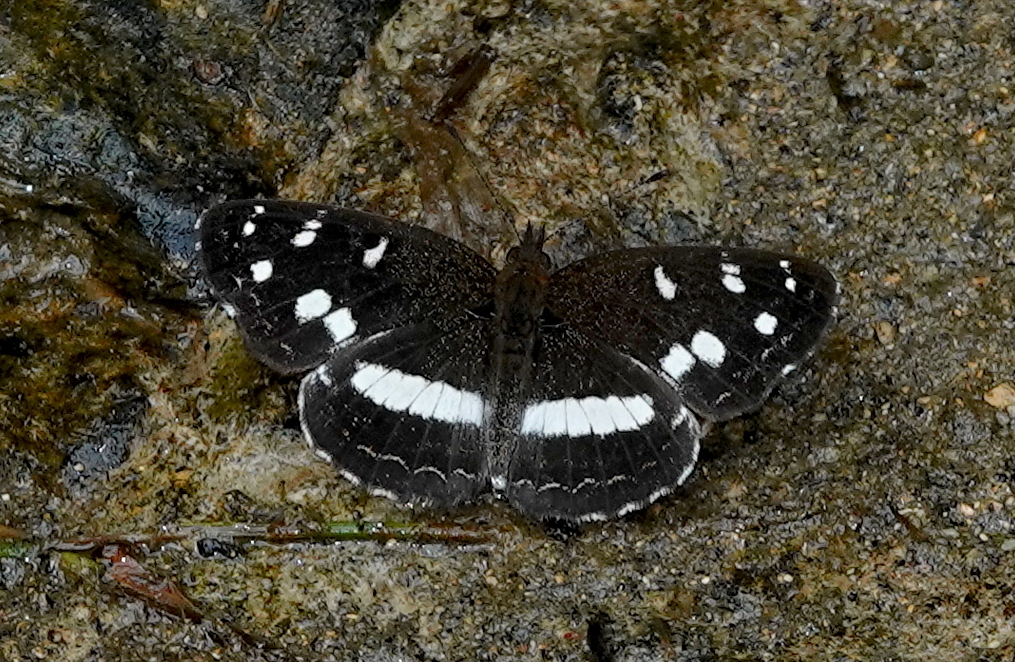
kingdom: Animalia
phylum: Arthropoda
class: Insecta
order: Lepidoptera
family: Nymphalidae
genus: Janatella
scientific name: Janatella fellula
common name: Colombian crescent
